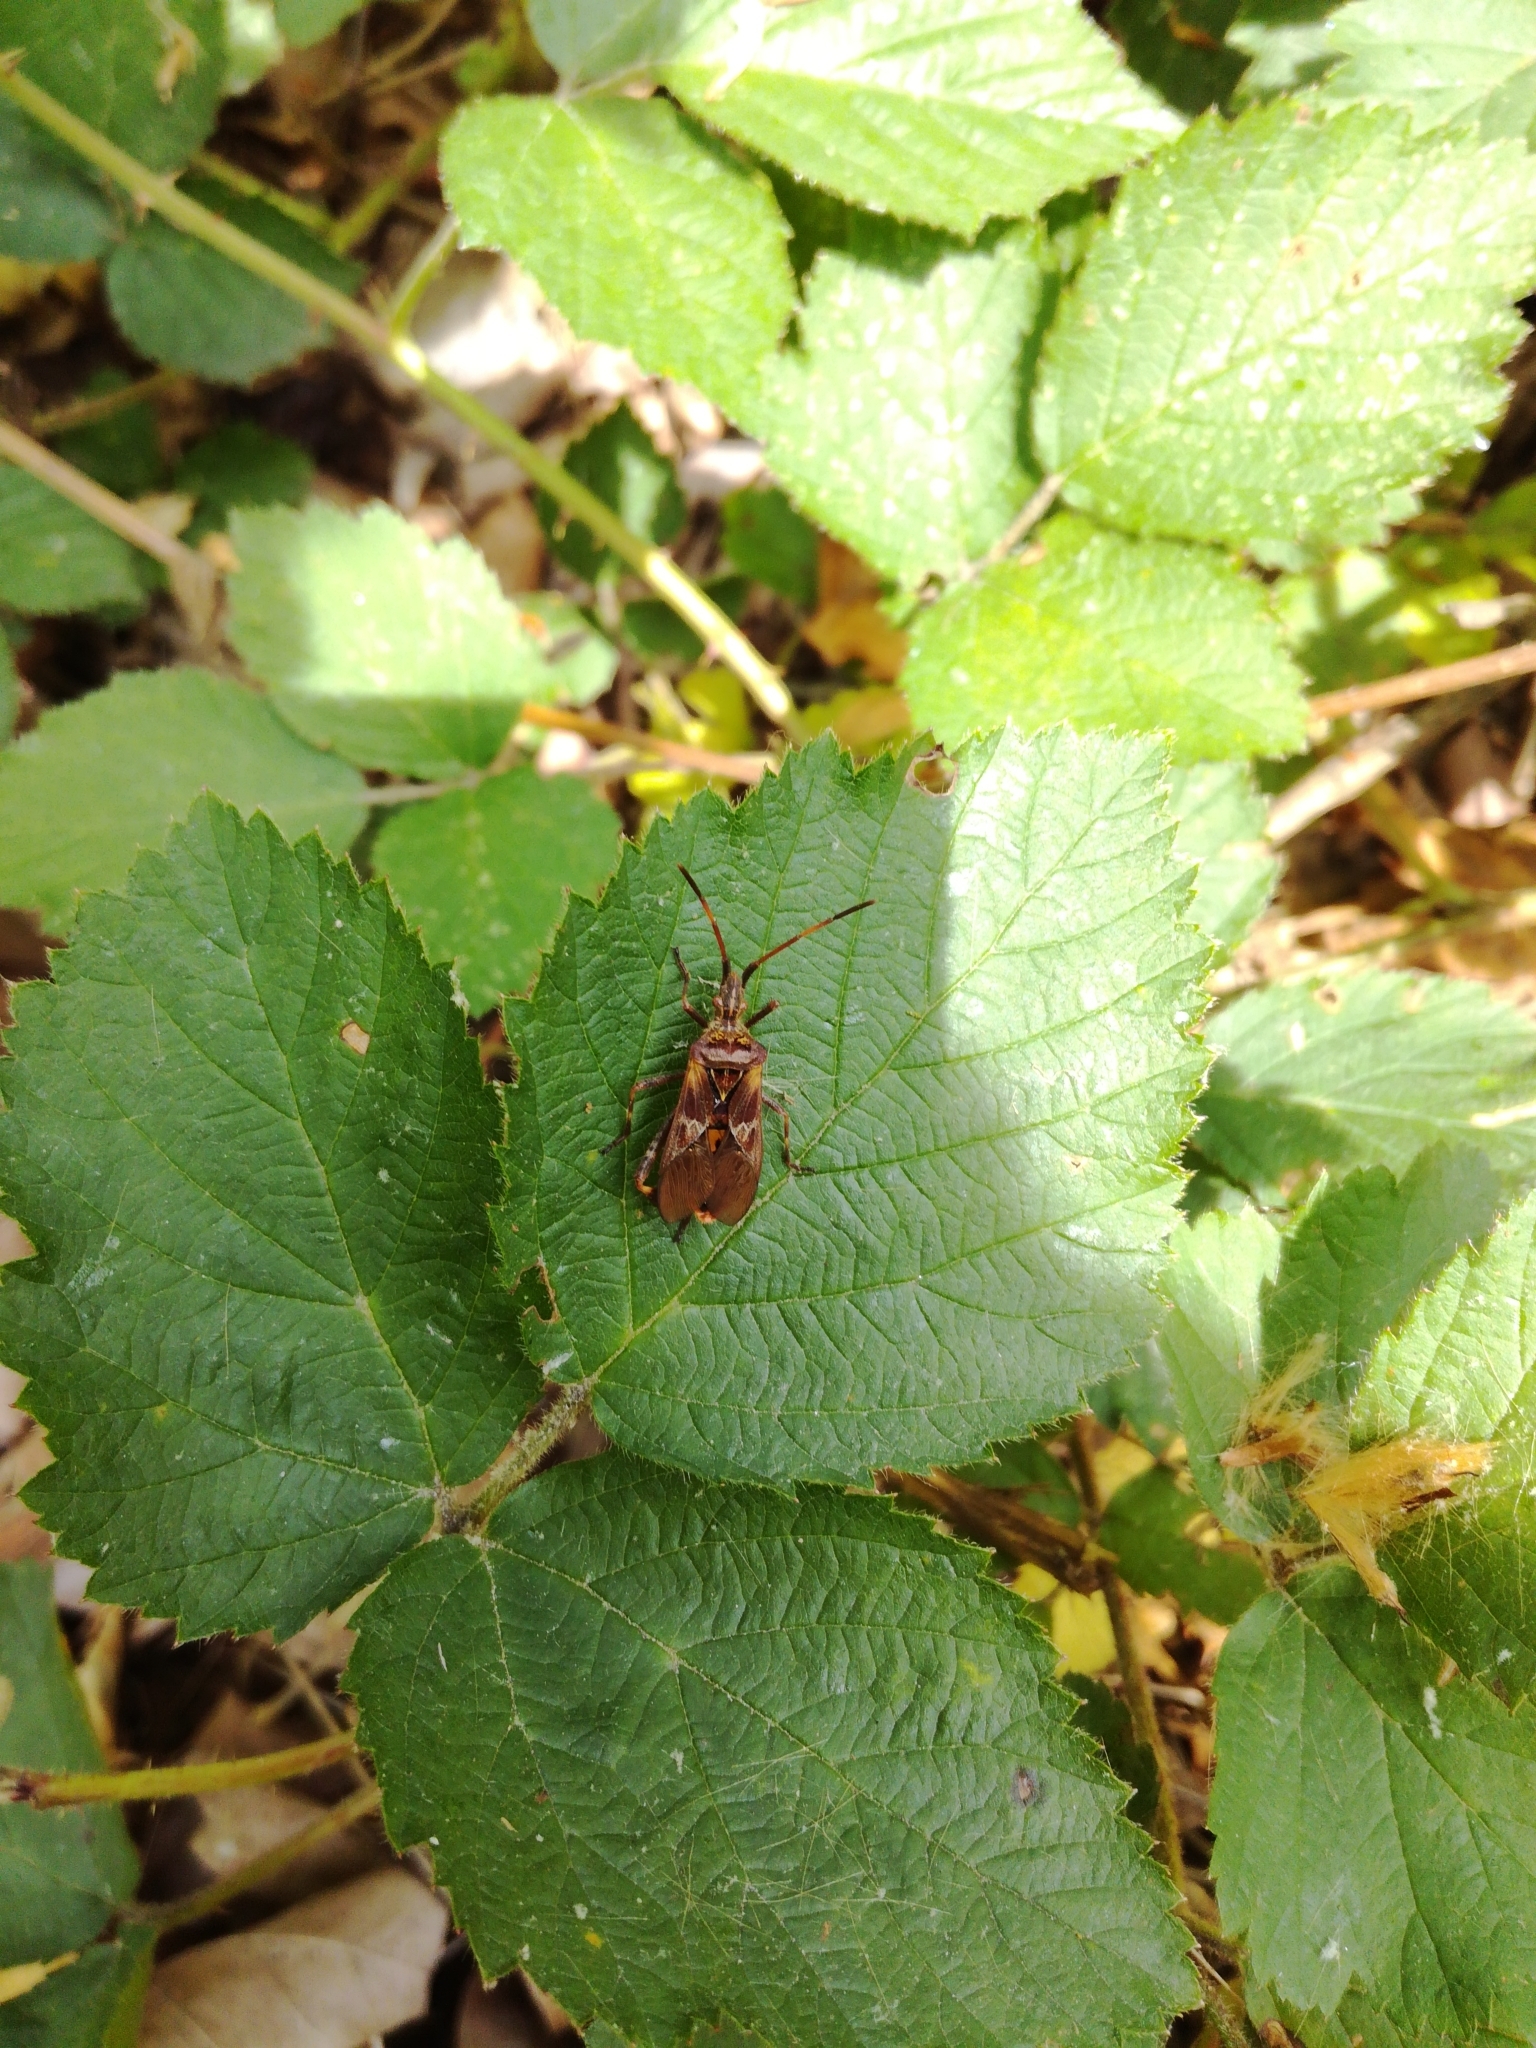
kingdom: Animalia
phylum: Arthropoda
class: Insecta
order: Hemiptera
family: Coreidae
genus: Leptoglossus
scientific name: Leptoglossus occidentalis
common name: Western conifer-seed bug
